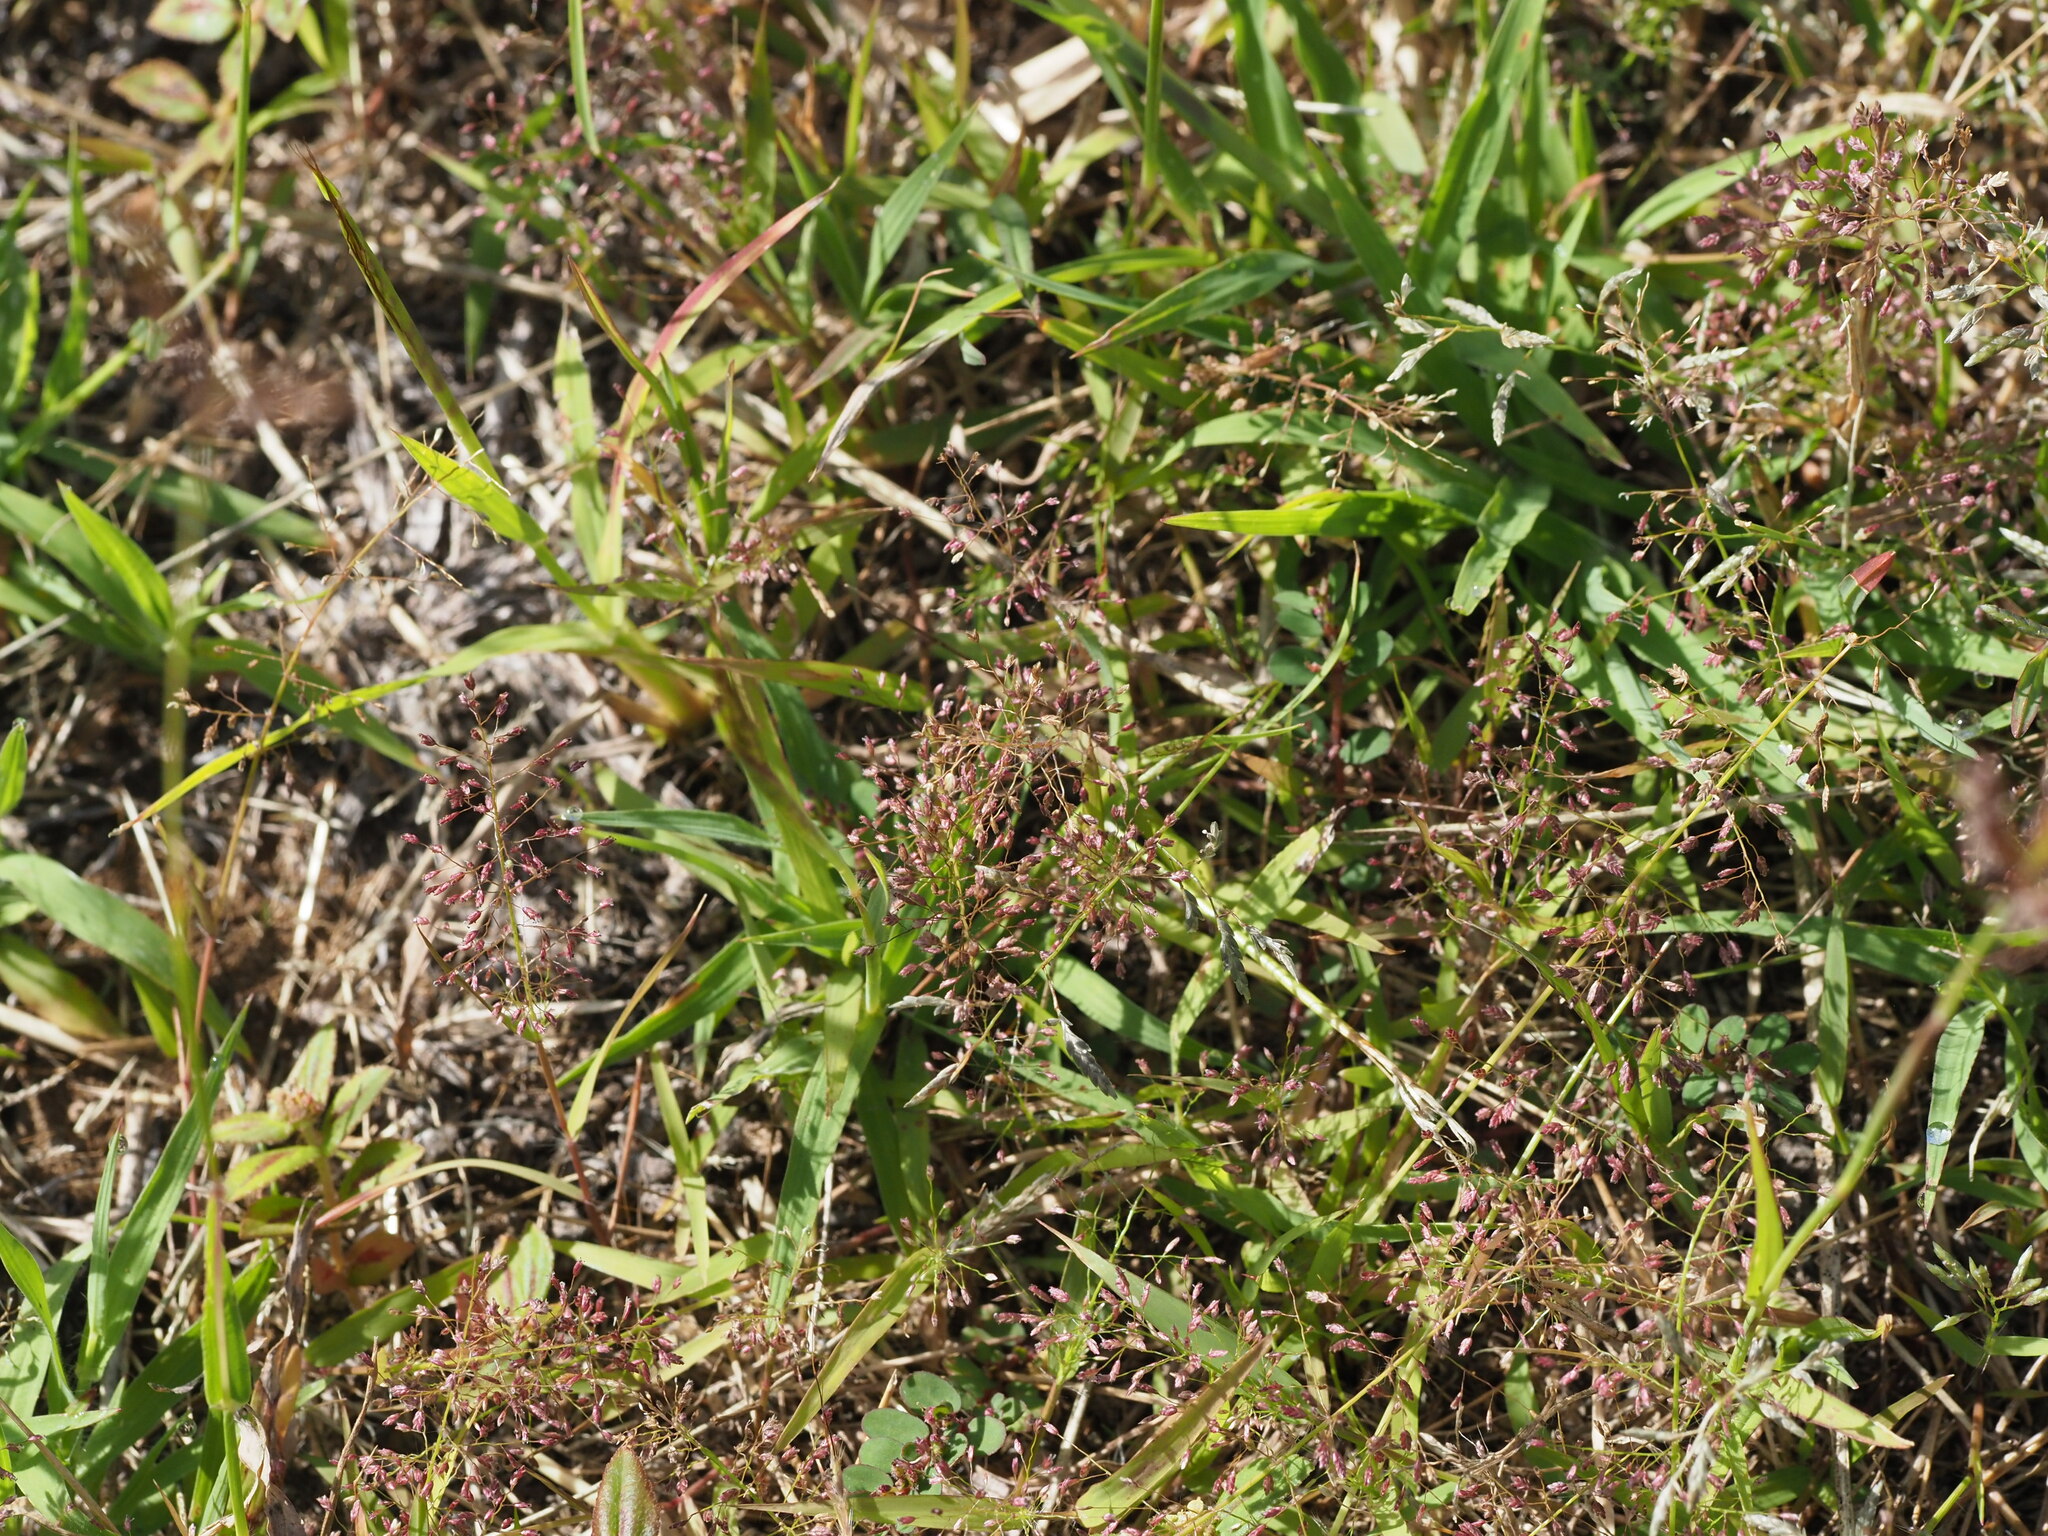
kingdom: Plantae
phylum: Tracheophyta
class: Liliopsida
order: Poales
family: Poaceae
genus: Eragrostis
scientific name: Eragrostis tenella
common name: Japanese lovegrass
